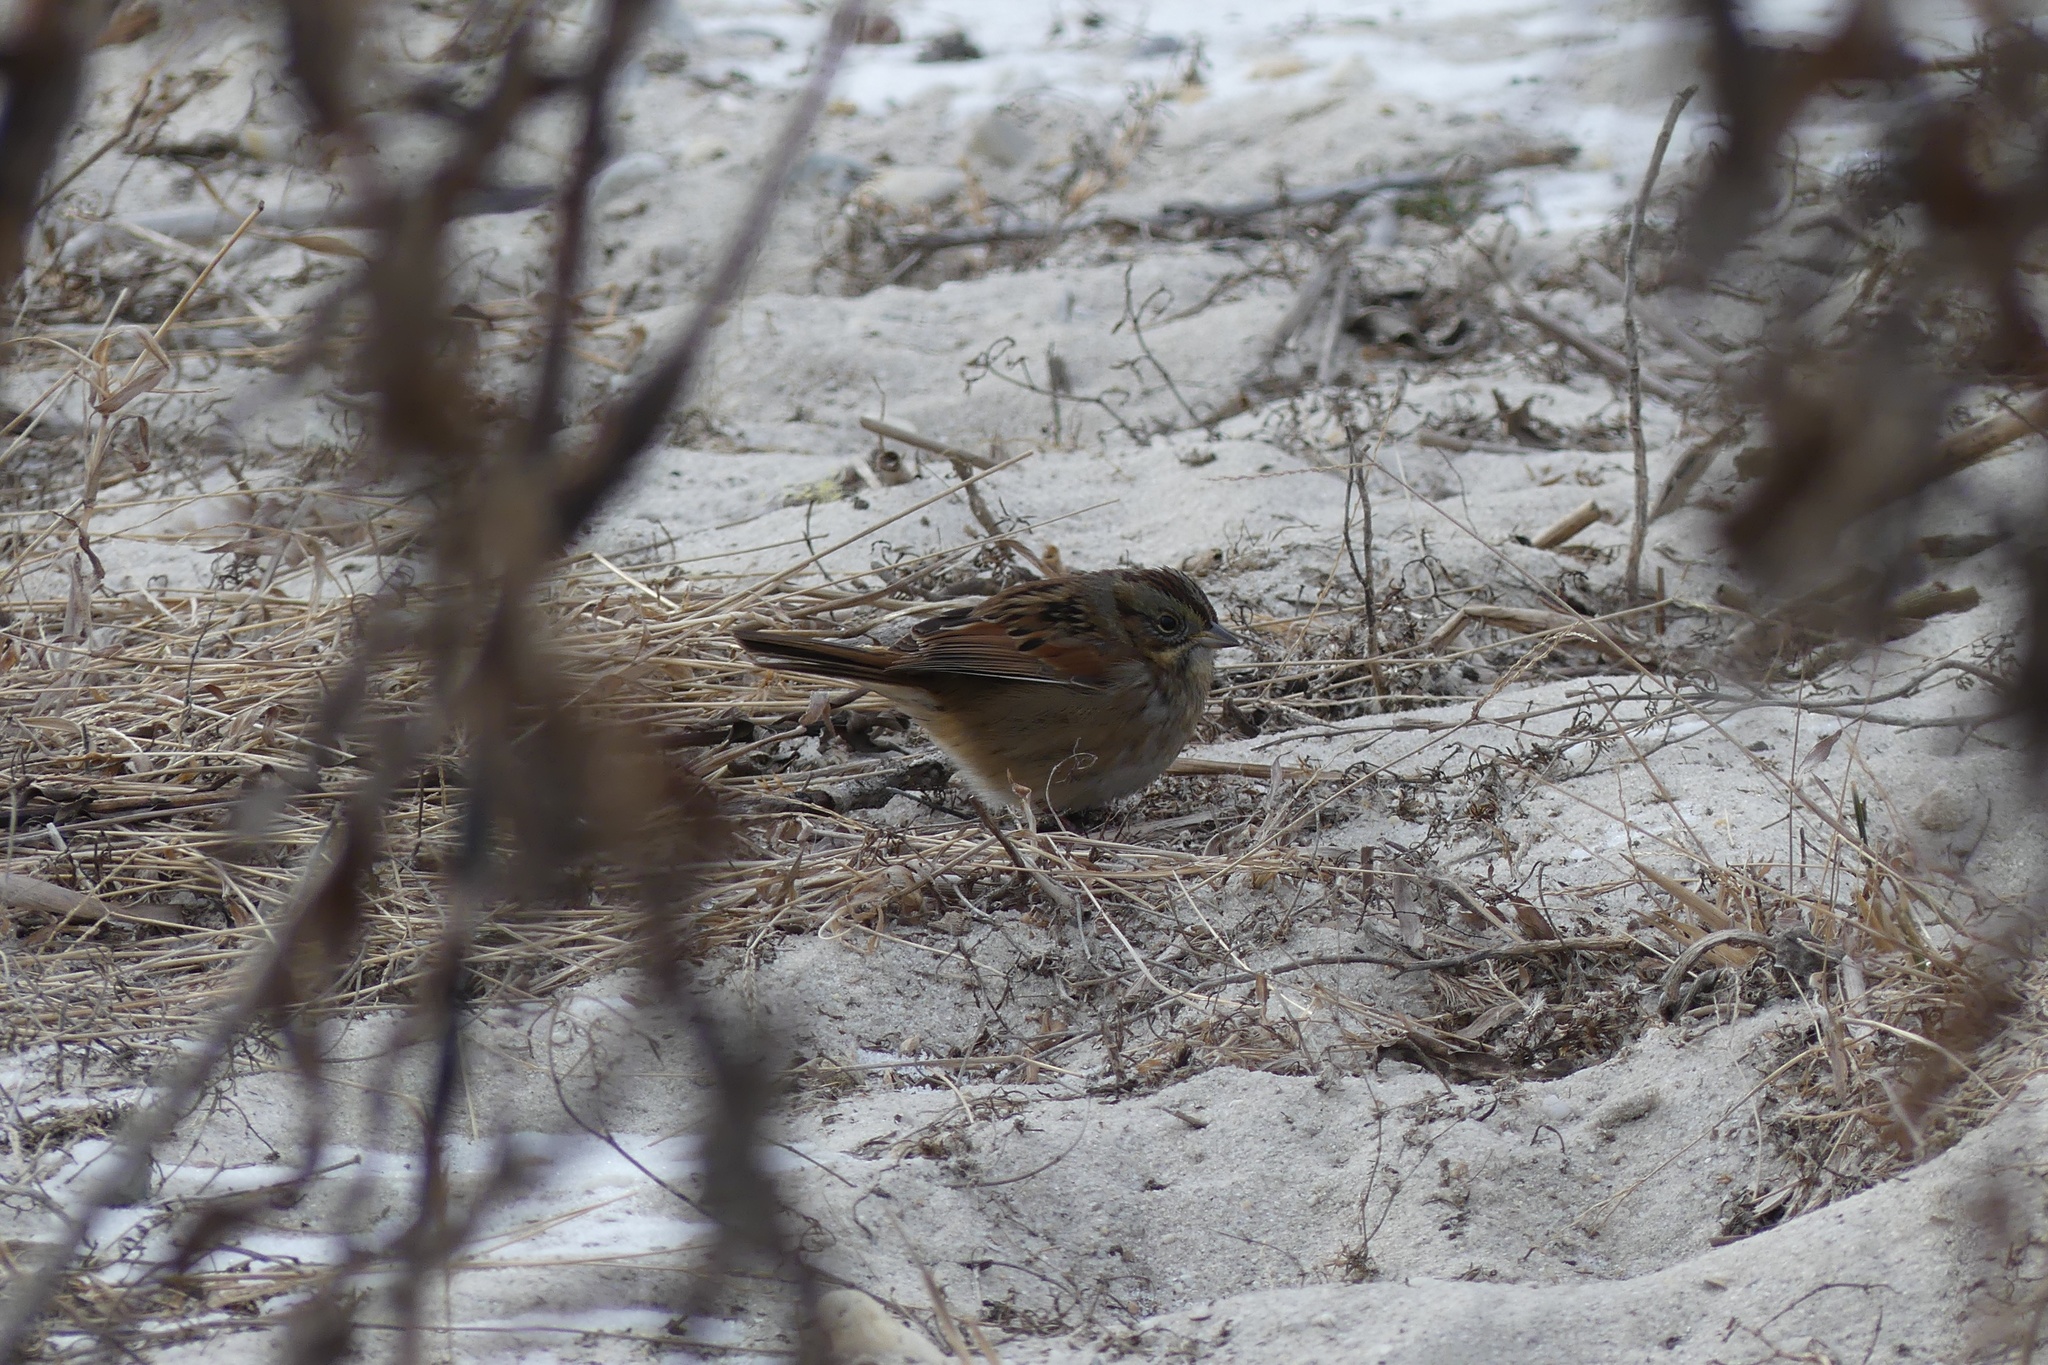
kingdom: Animalia
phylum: Chordata
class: Aves
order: Passeriformes
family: Passerellidae
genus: Melospiza
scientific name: Melospiza georgiana
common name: Swamp sparrow
